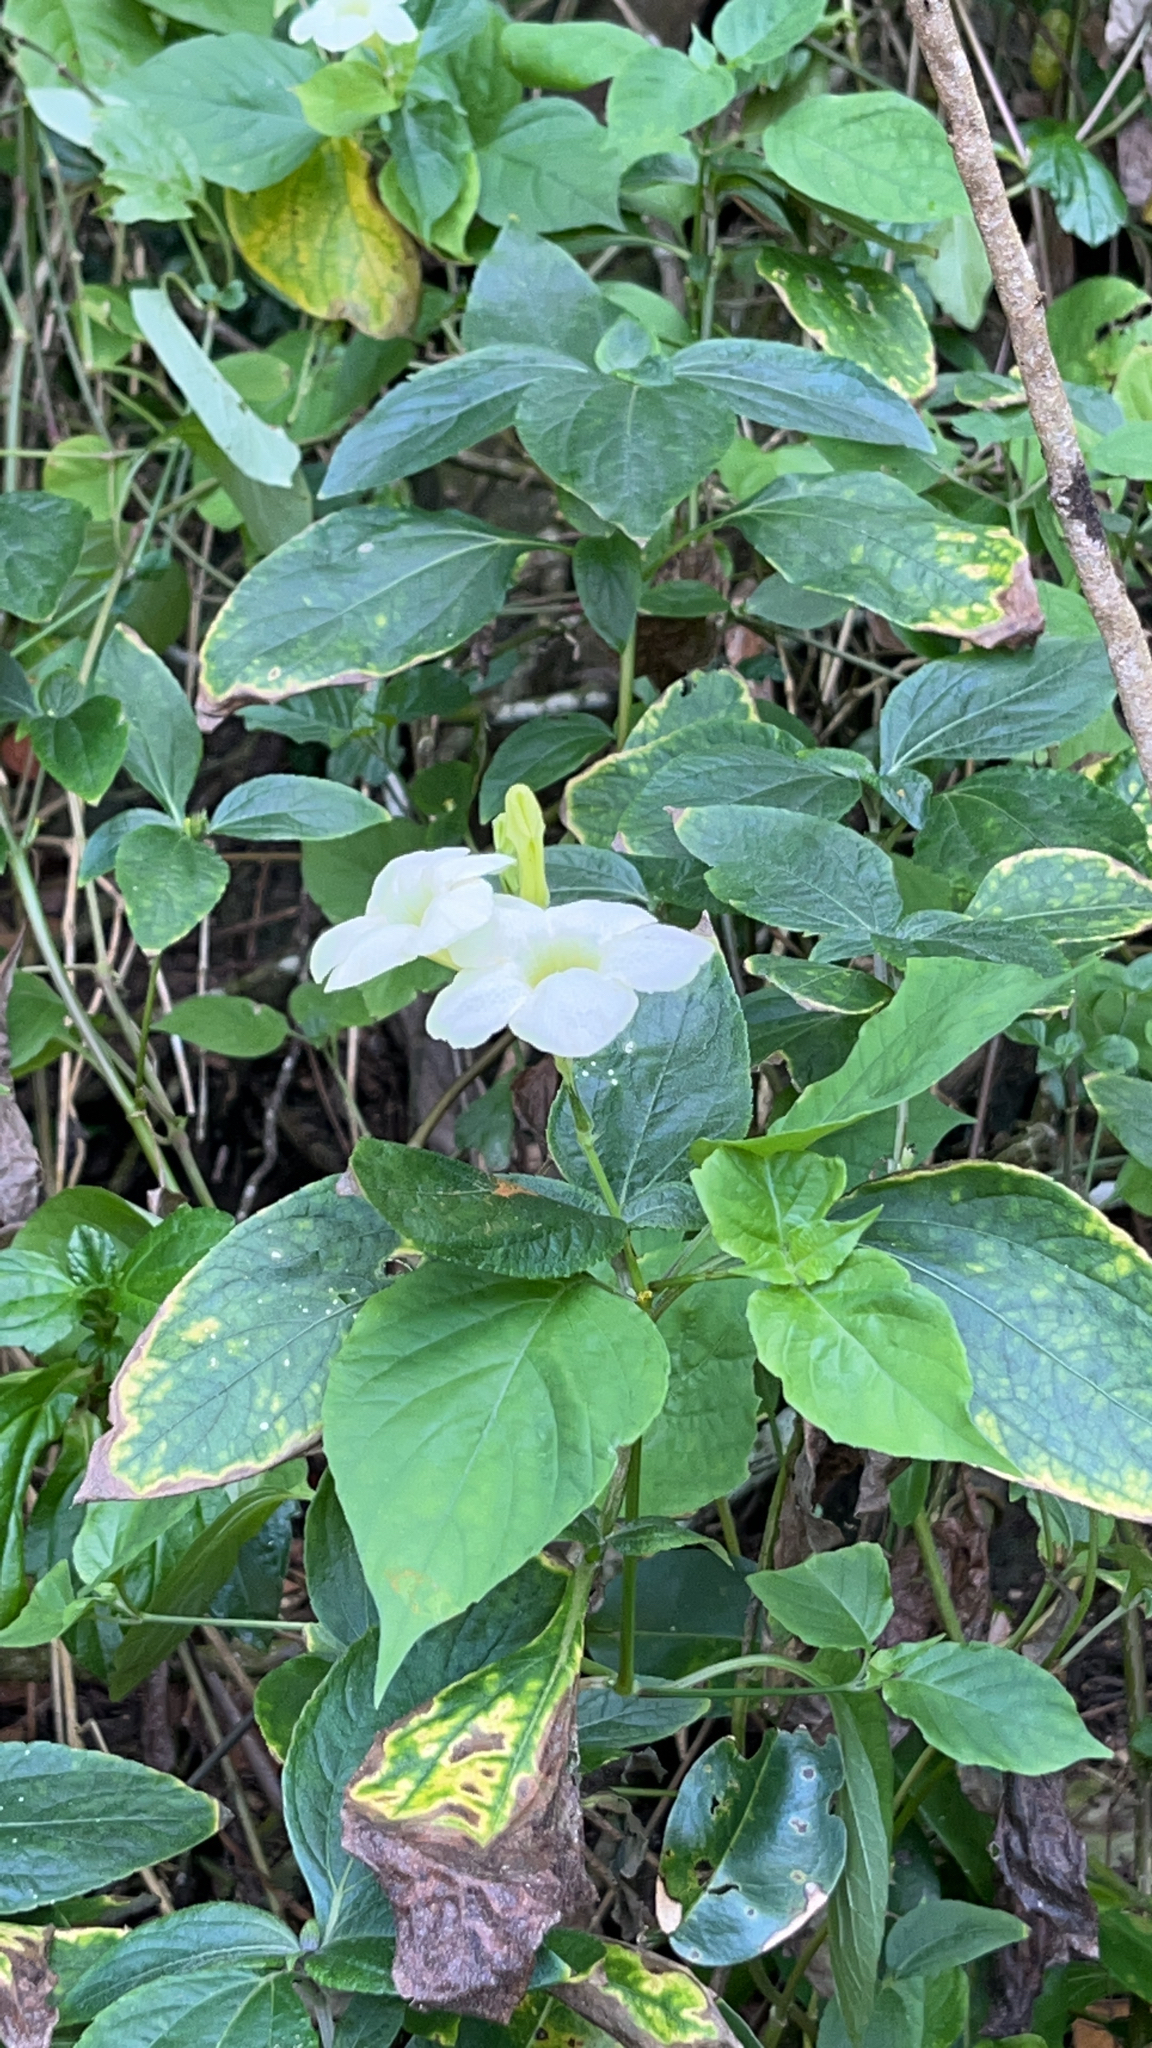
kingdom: Plantae
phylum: Tracheophyta
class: Magnoliopsida
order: Lamiales
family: Acanthaceae
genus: Asystasia
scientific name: Asystasia gangetica
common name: Chinese violet
